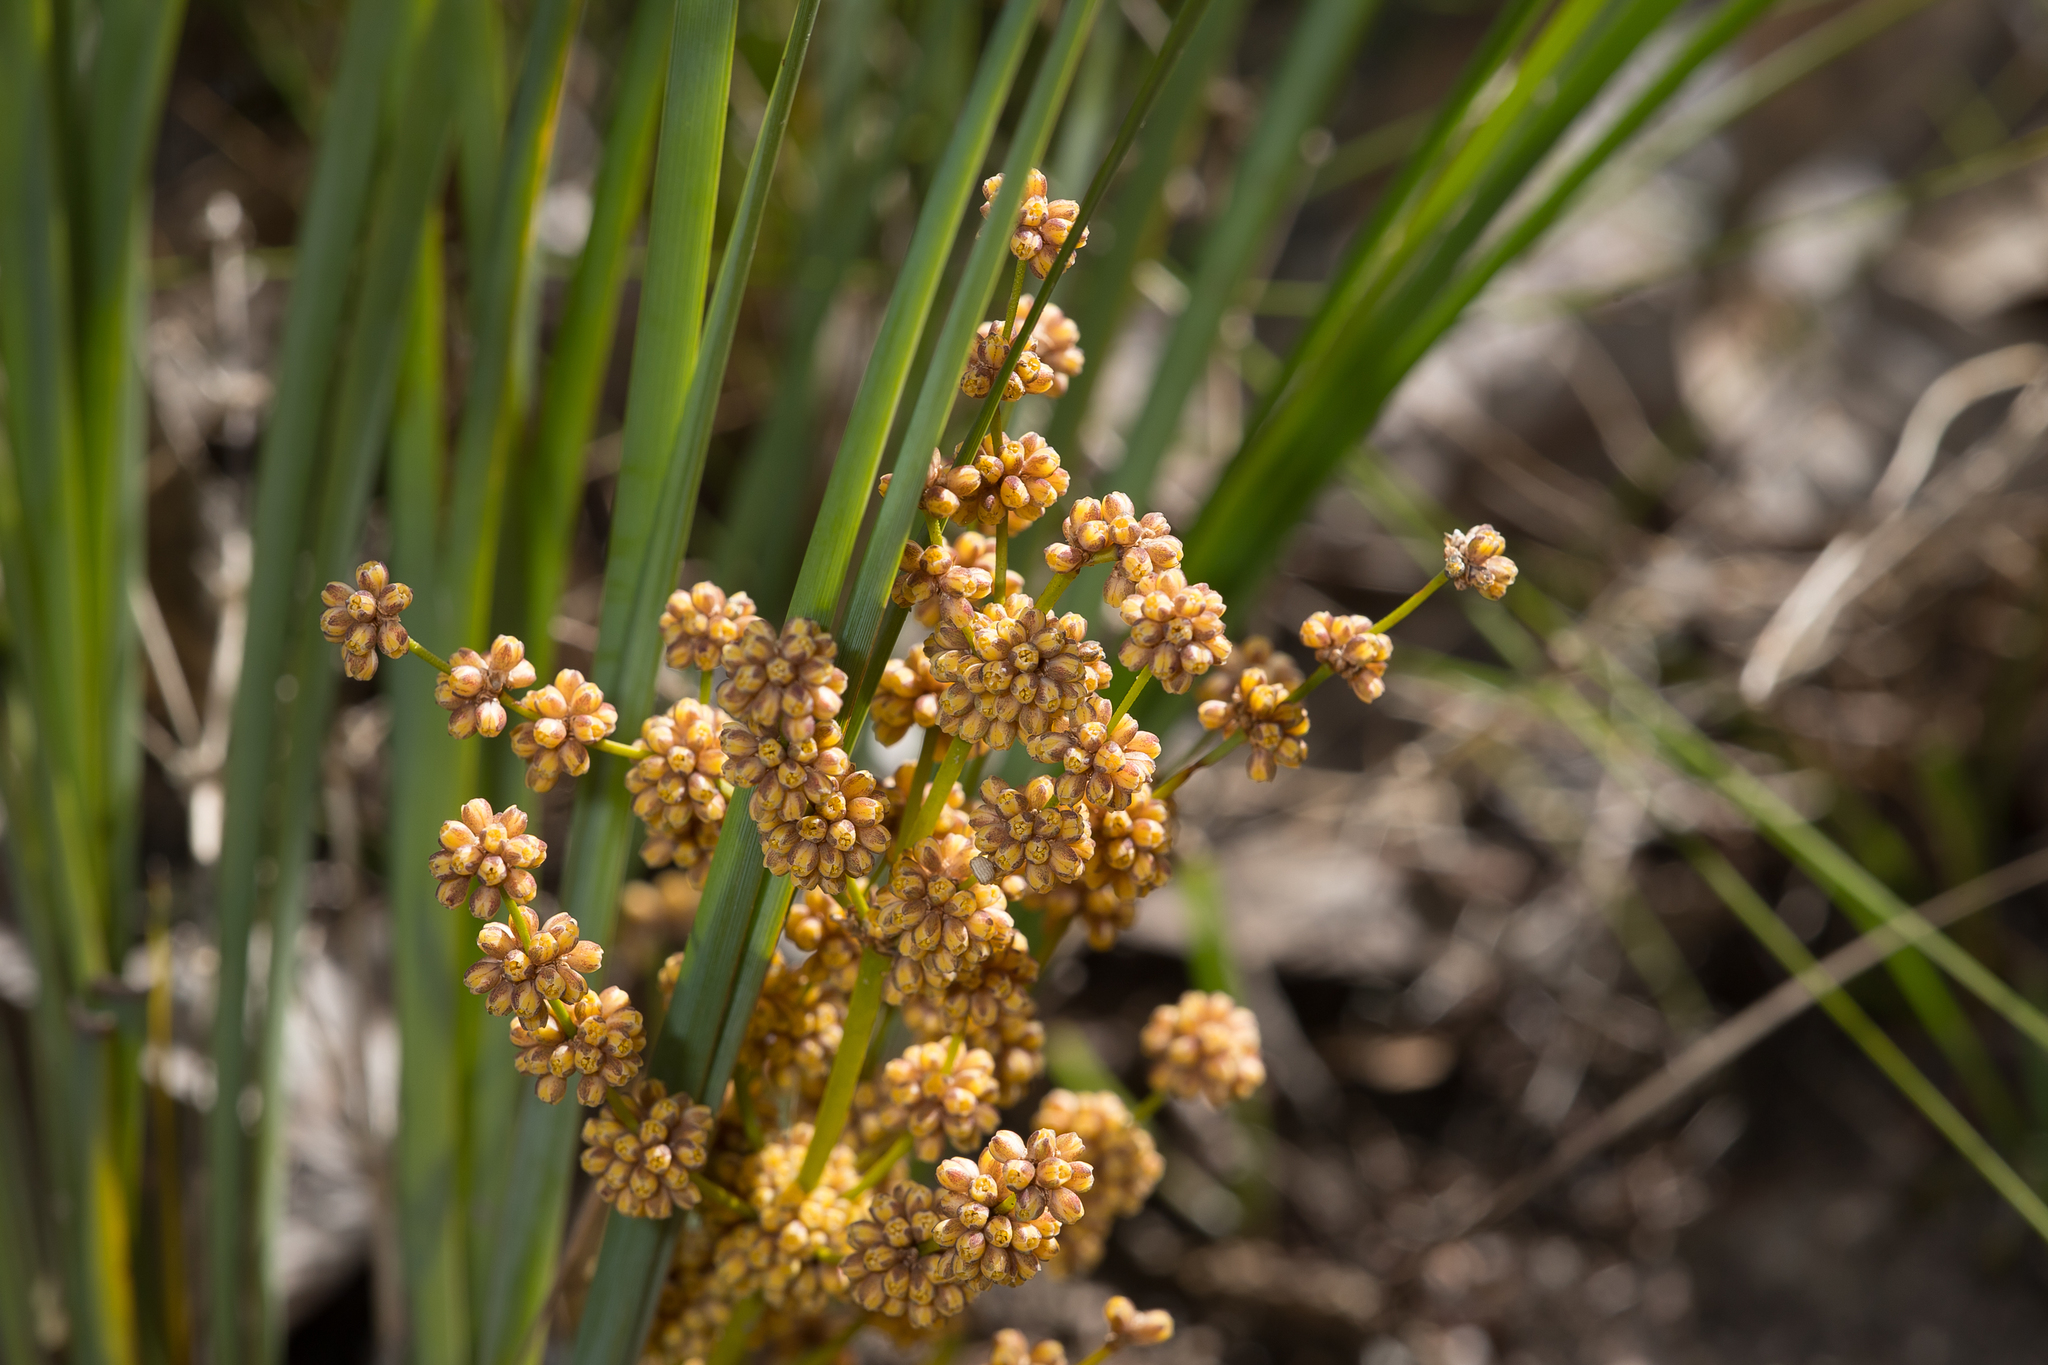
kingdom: Plantae
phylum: Tracheophyta
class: Liliopsida
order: Asparagales
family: Asparagaceae
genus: Lomandra
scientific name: Lomandra multiflora
